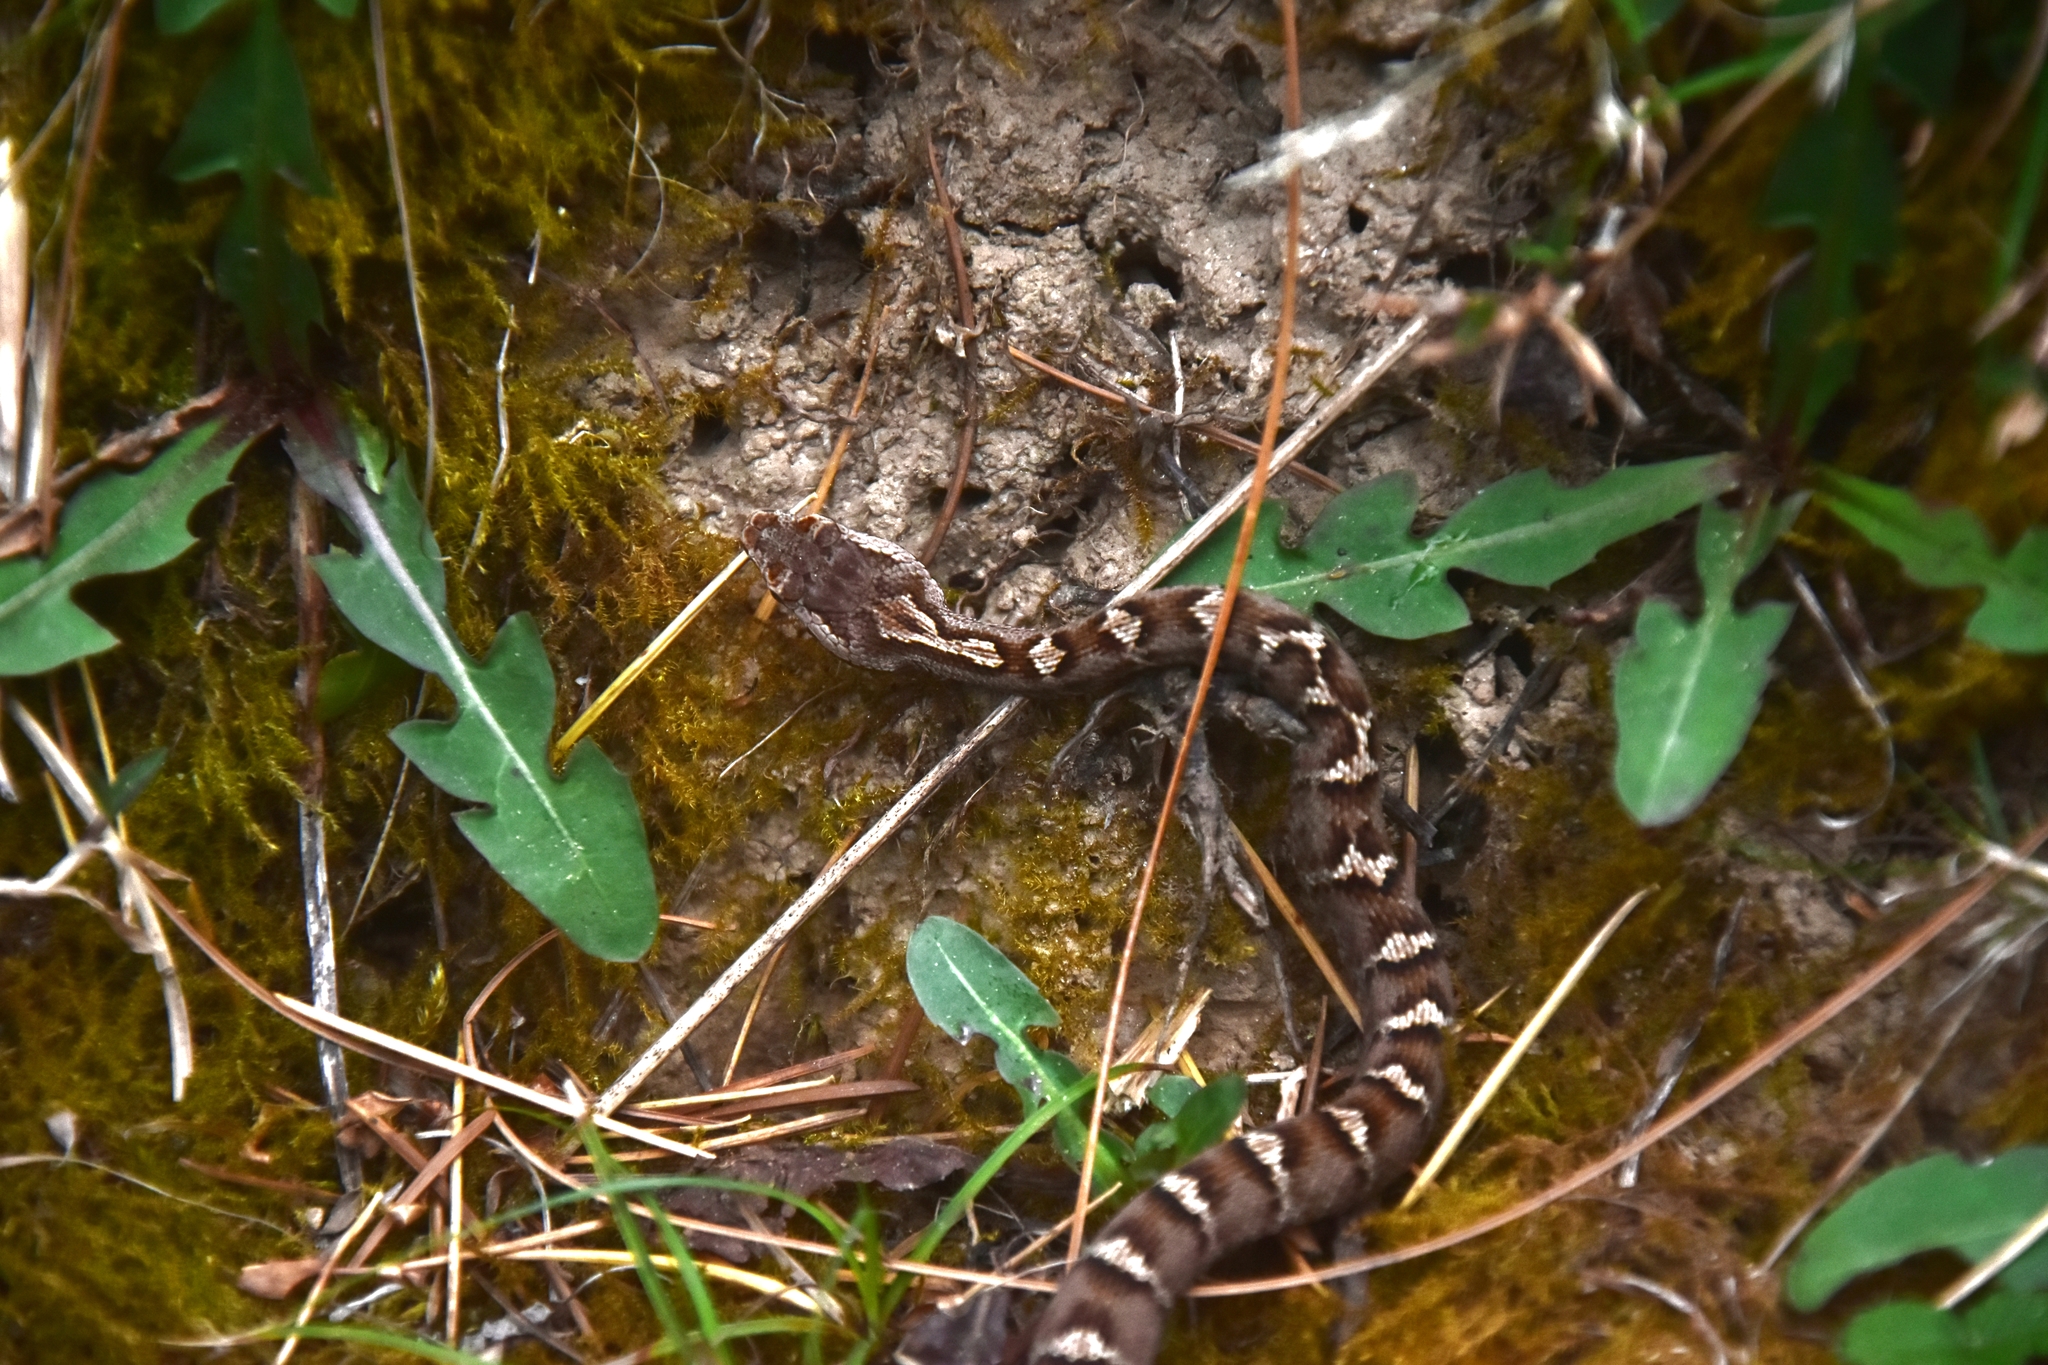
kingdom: Animalia
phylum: Chordata
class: Squamata
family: Viperidae
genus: Gloydius
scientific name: Gloydius himalayanus
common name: Himalayan pit-viper
